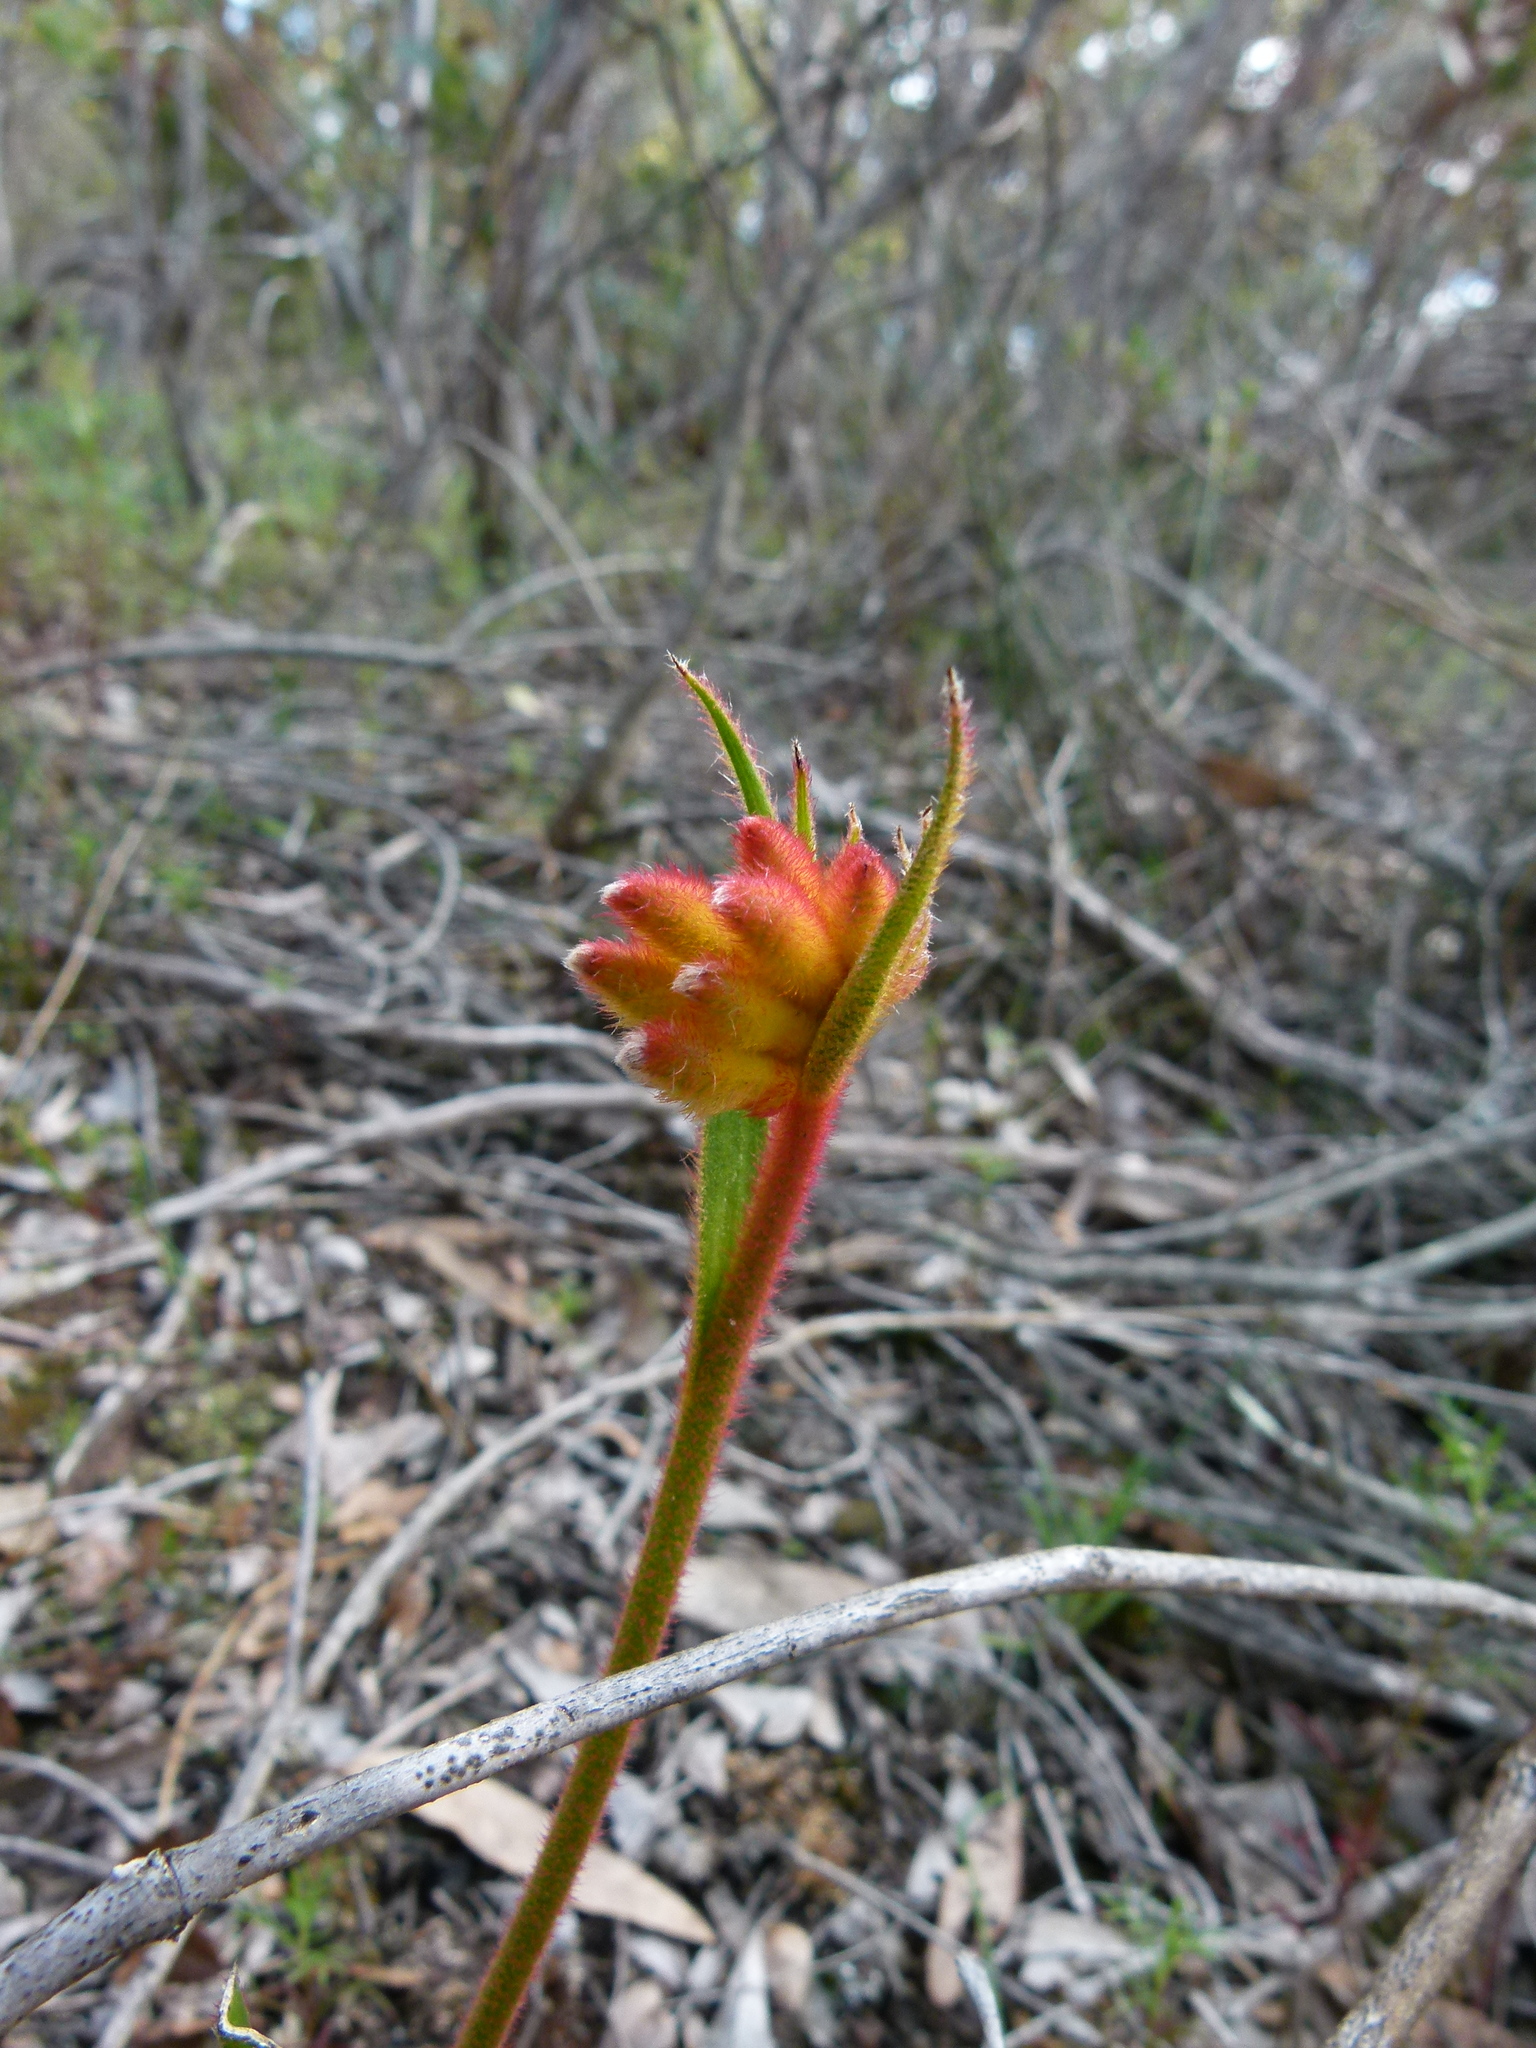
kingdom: Plantae
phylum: Tracheophyta
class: Liliopsida
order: Commelinales
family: Haemodoraceae
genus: Anigozanthos
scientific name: Anigozanthos humilis
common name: Cat's-paw
